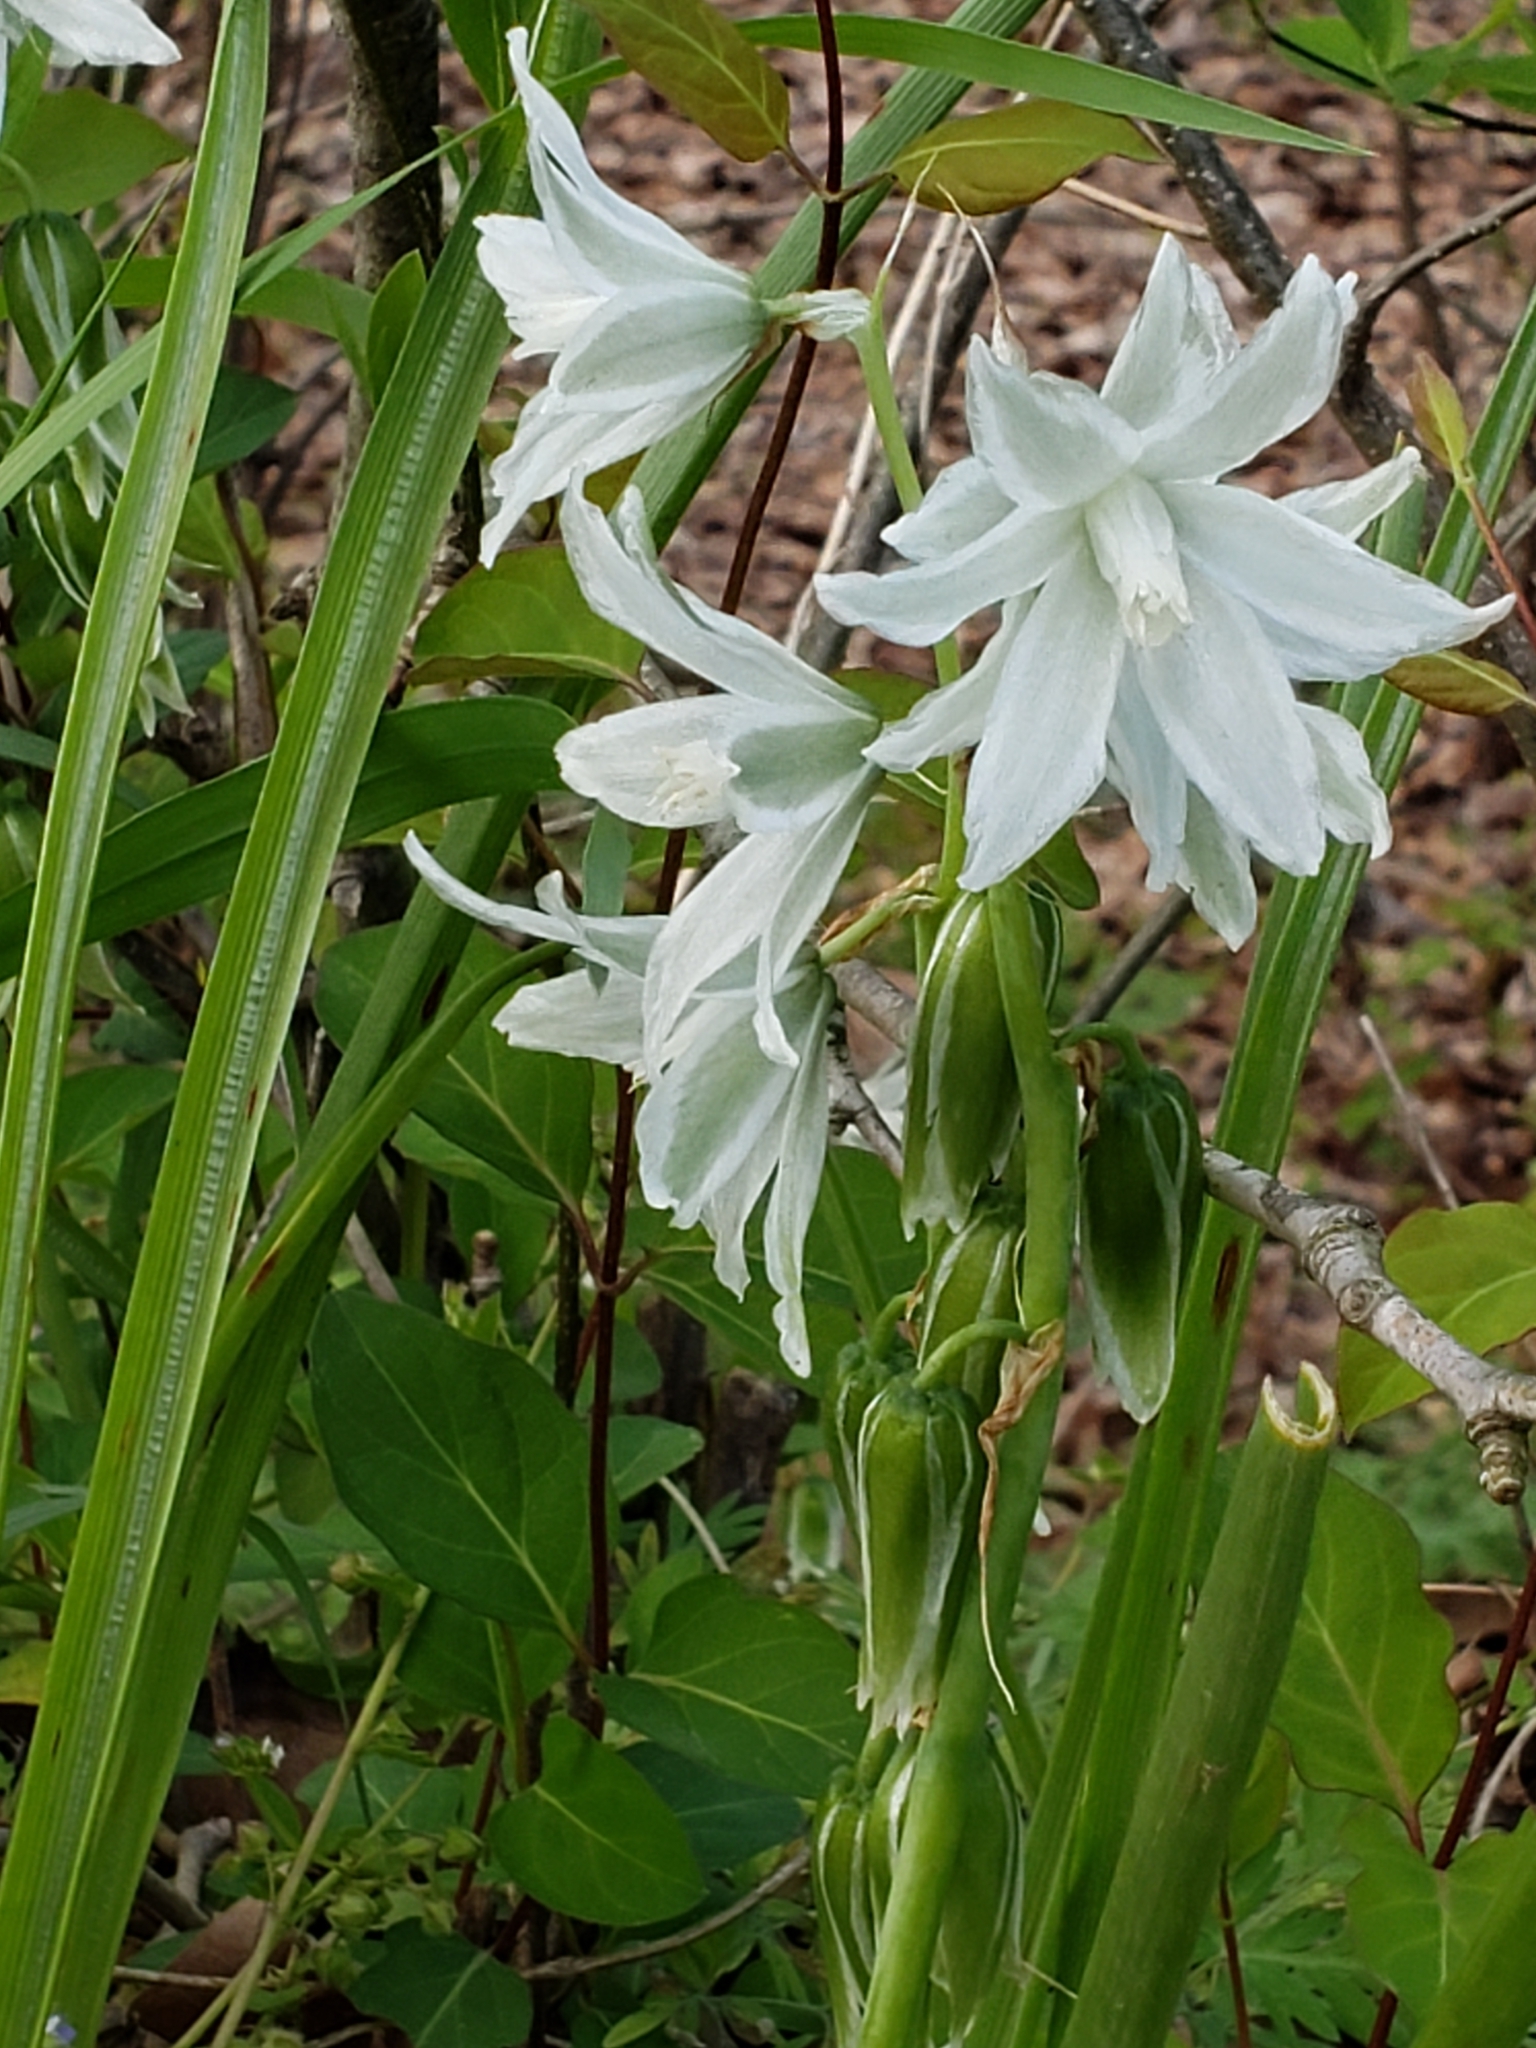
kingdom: Plantae
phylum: Tracheophyta
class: Liliopsida
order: Asparagales
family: Asparagaceae
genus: Ornithogalum
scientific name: Ornithogalum nutans
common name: Drooping star-of-bethlehem
